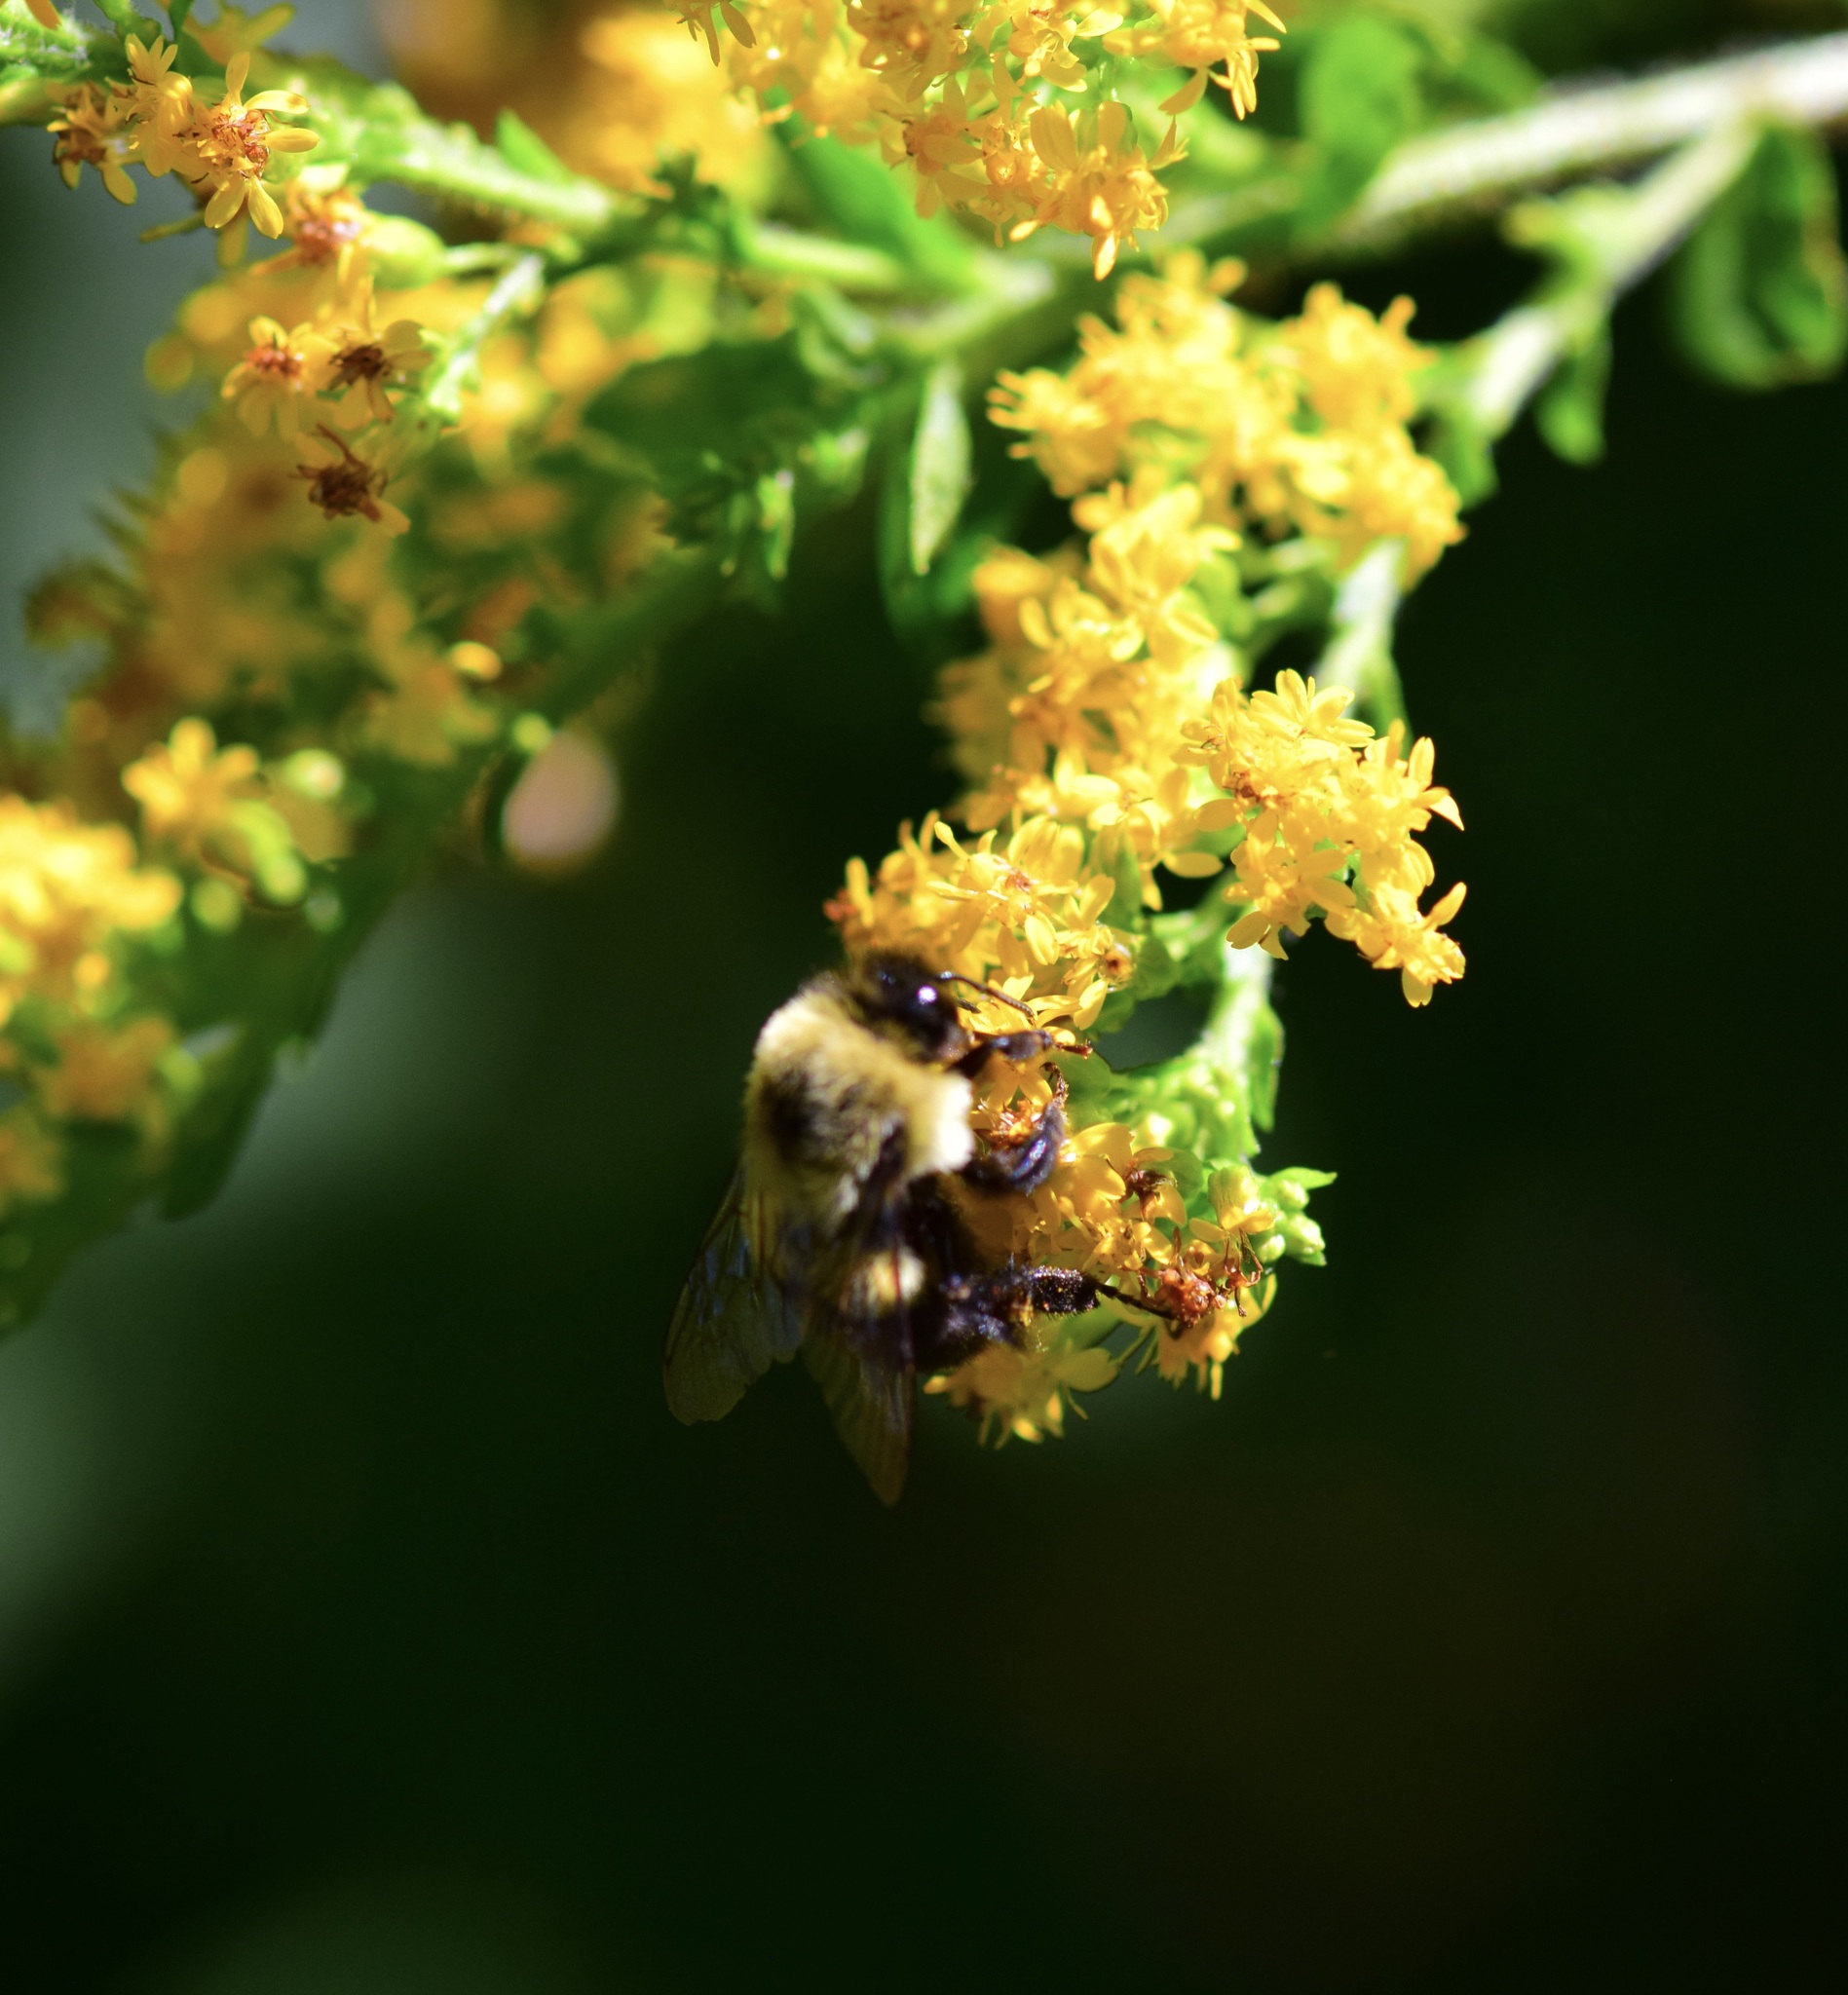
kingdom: Animalia
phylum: Arthropoda
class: Insecta
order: Hymenoptera
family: Apidae
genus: Bombus
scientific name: Bombus impatiens
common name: Common eastern bumble bee
